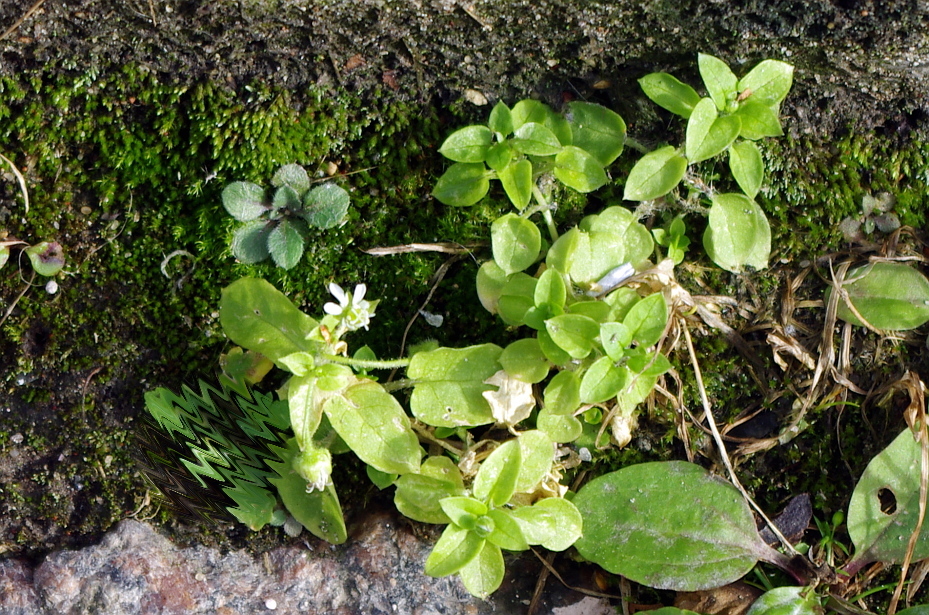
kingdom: Plantae
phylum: Tracheophyta
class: Magnoliopsida
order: Caryophyllales
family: Caryophyllaceae
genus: Stellaria
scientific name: Stellaria aquatica
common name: Water chickweed
